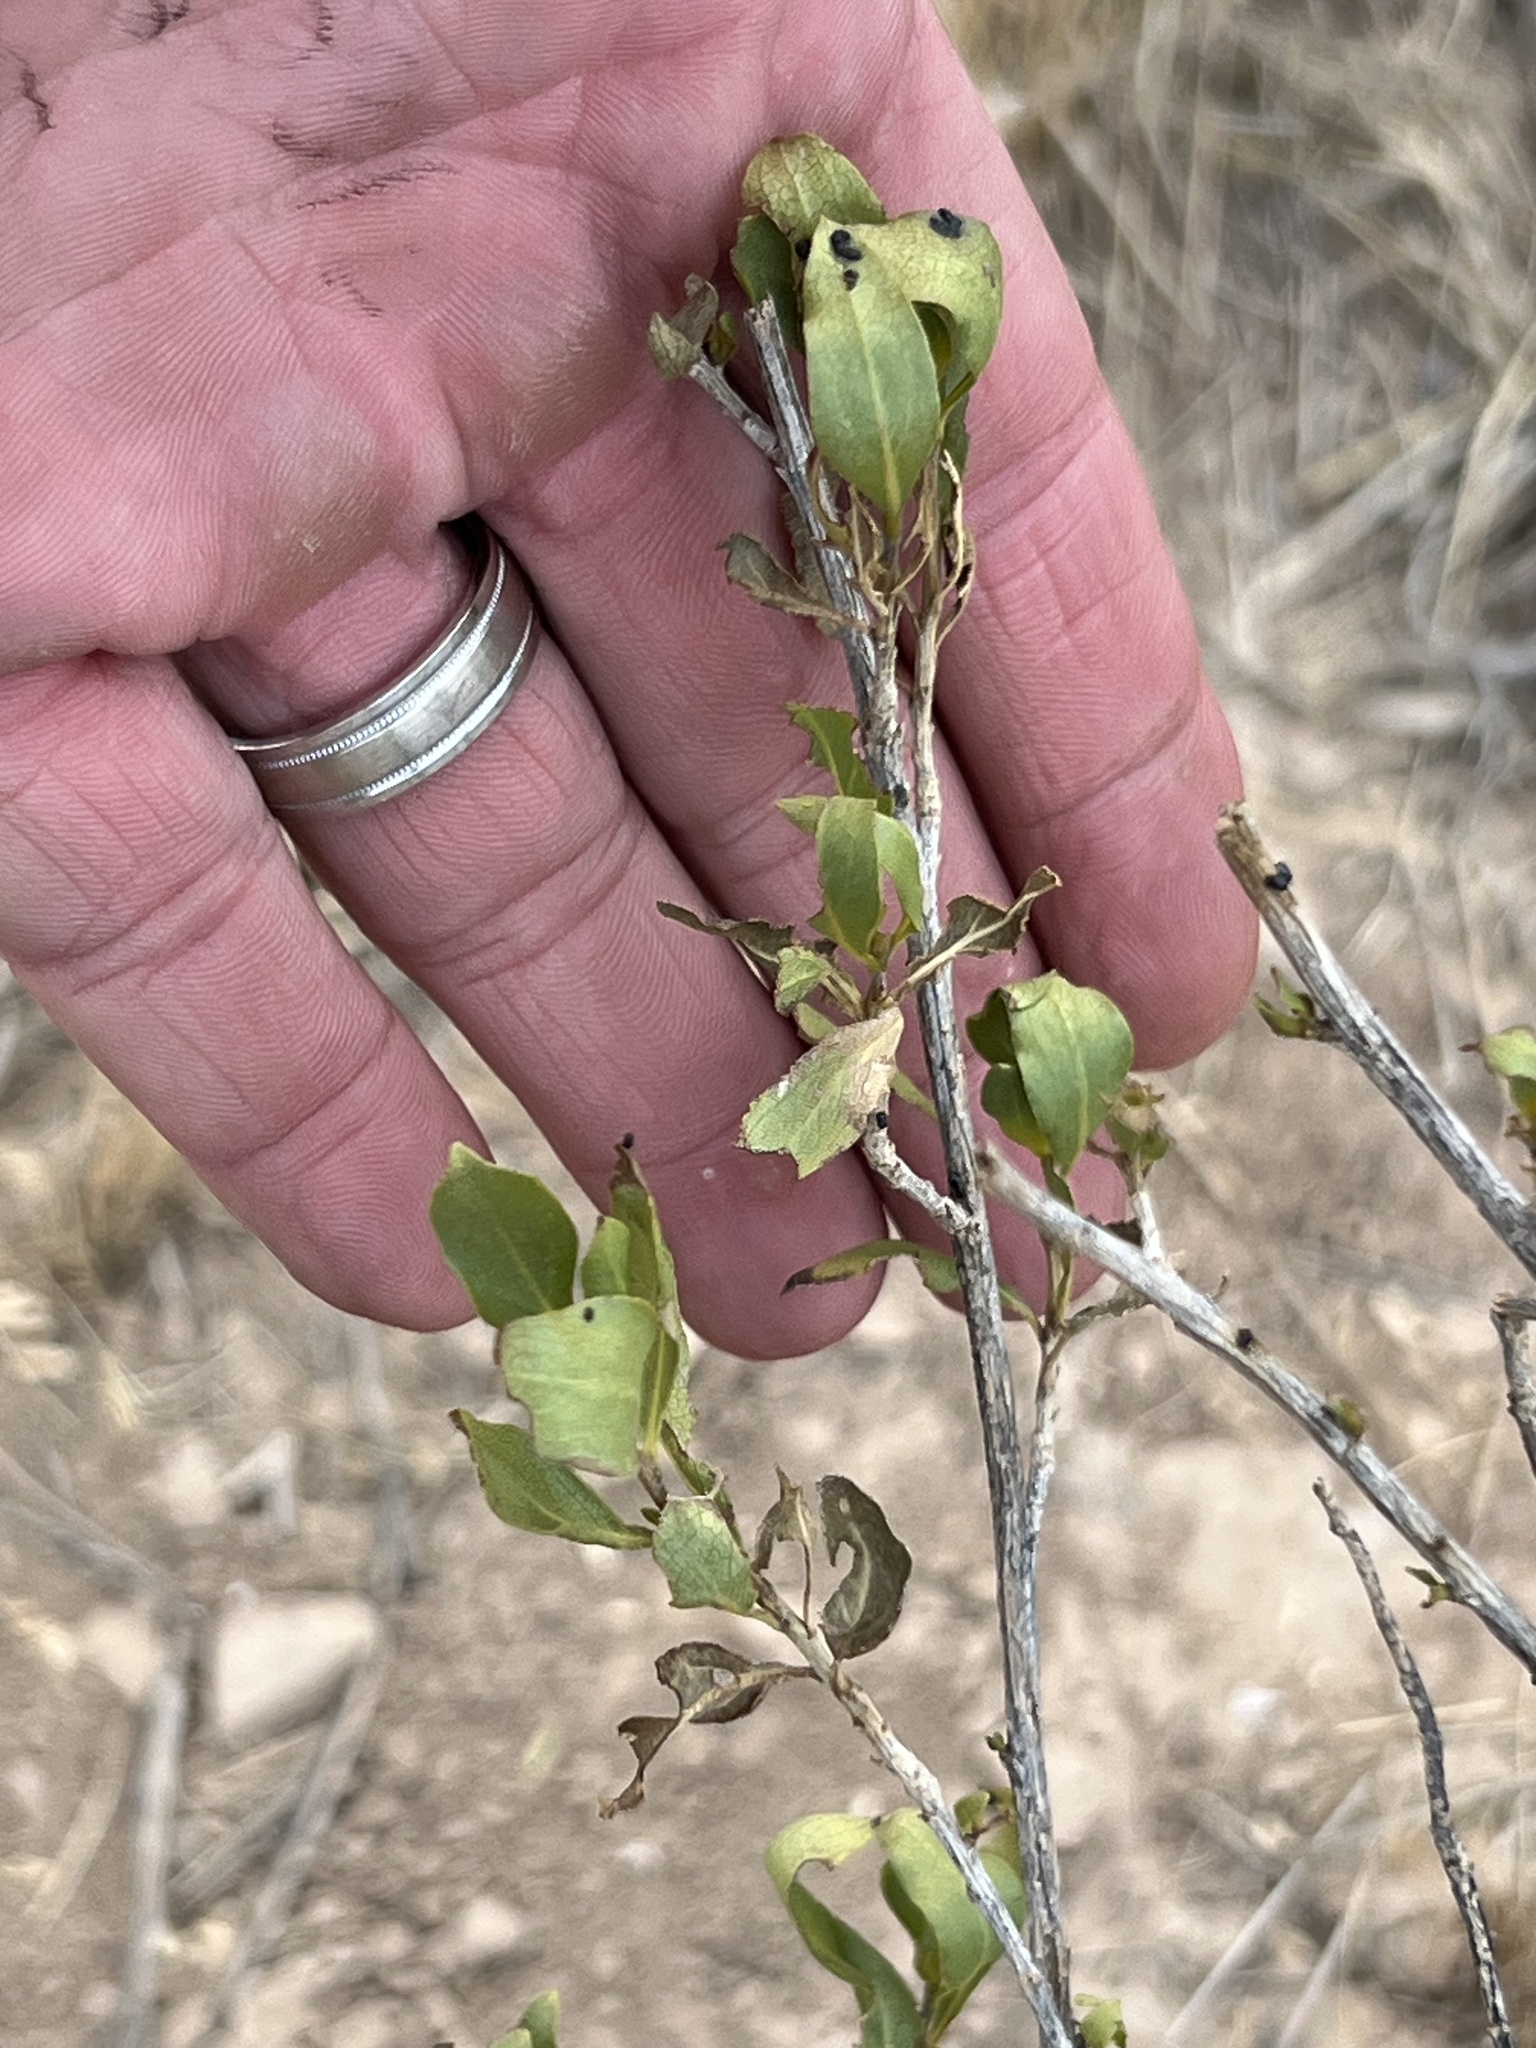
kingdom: Plantae
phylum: Tracheophyta
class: Magnoliopsida
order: Asterales
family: Asteraceae
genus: Flourensia
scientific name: Flourensia cernua
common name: Varnishbush
